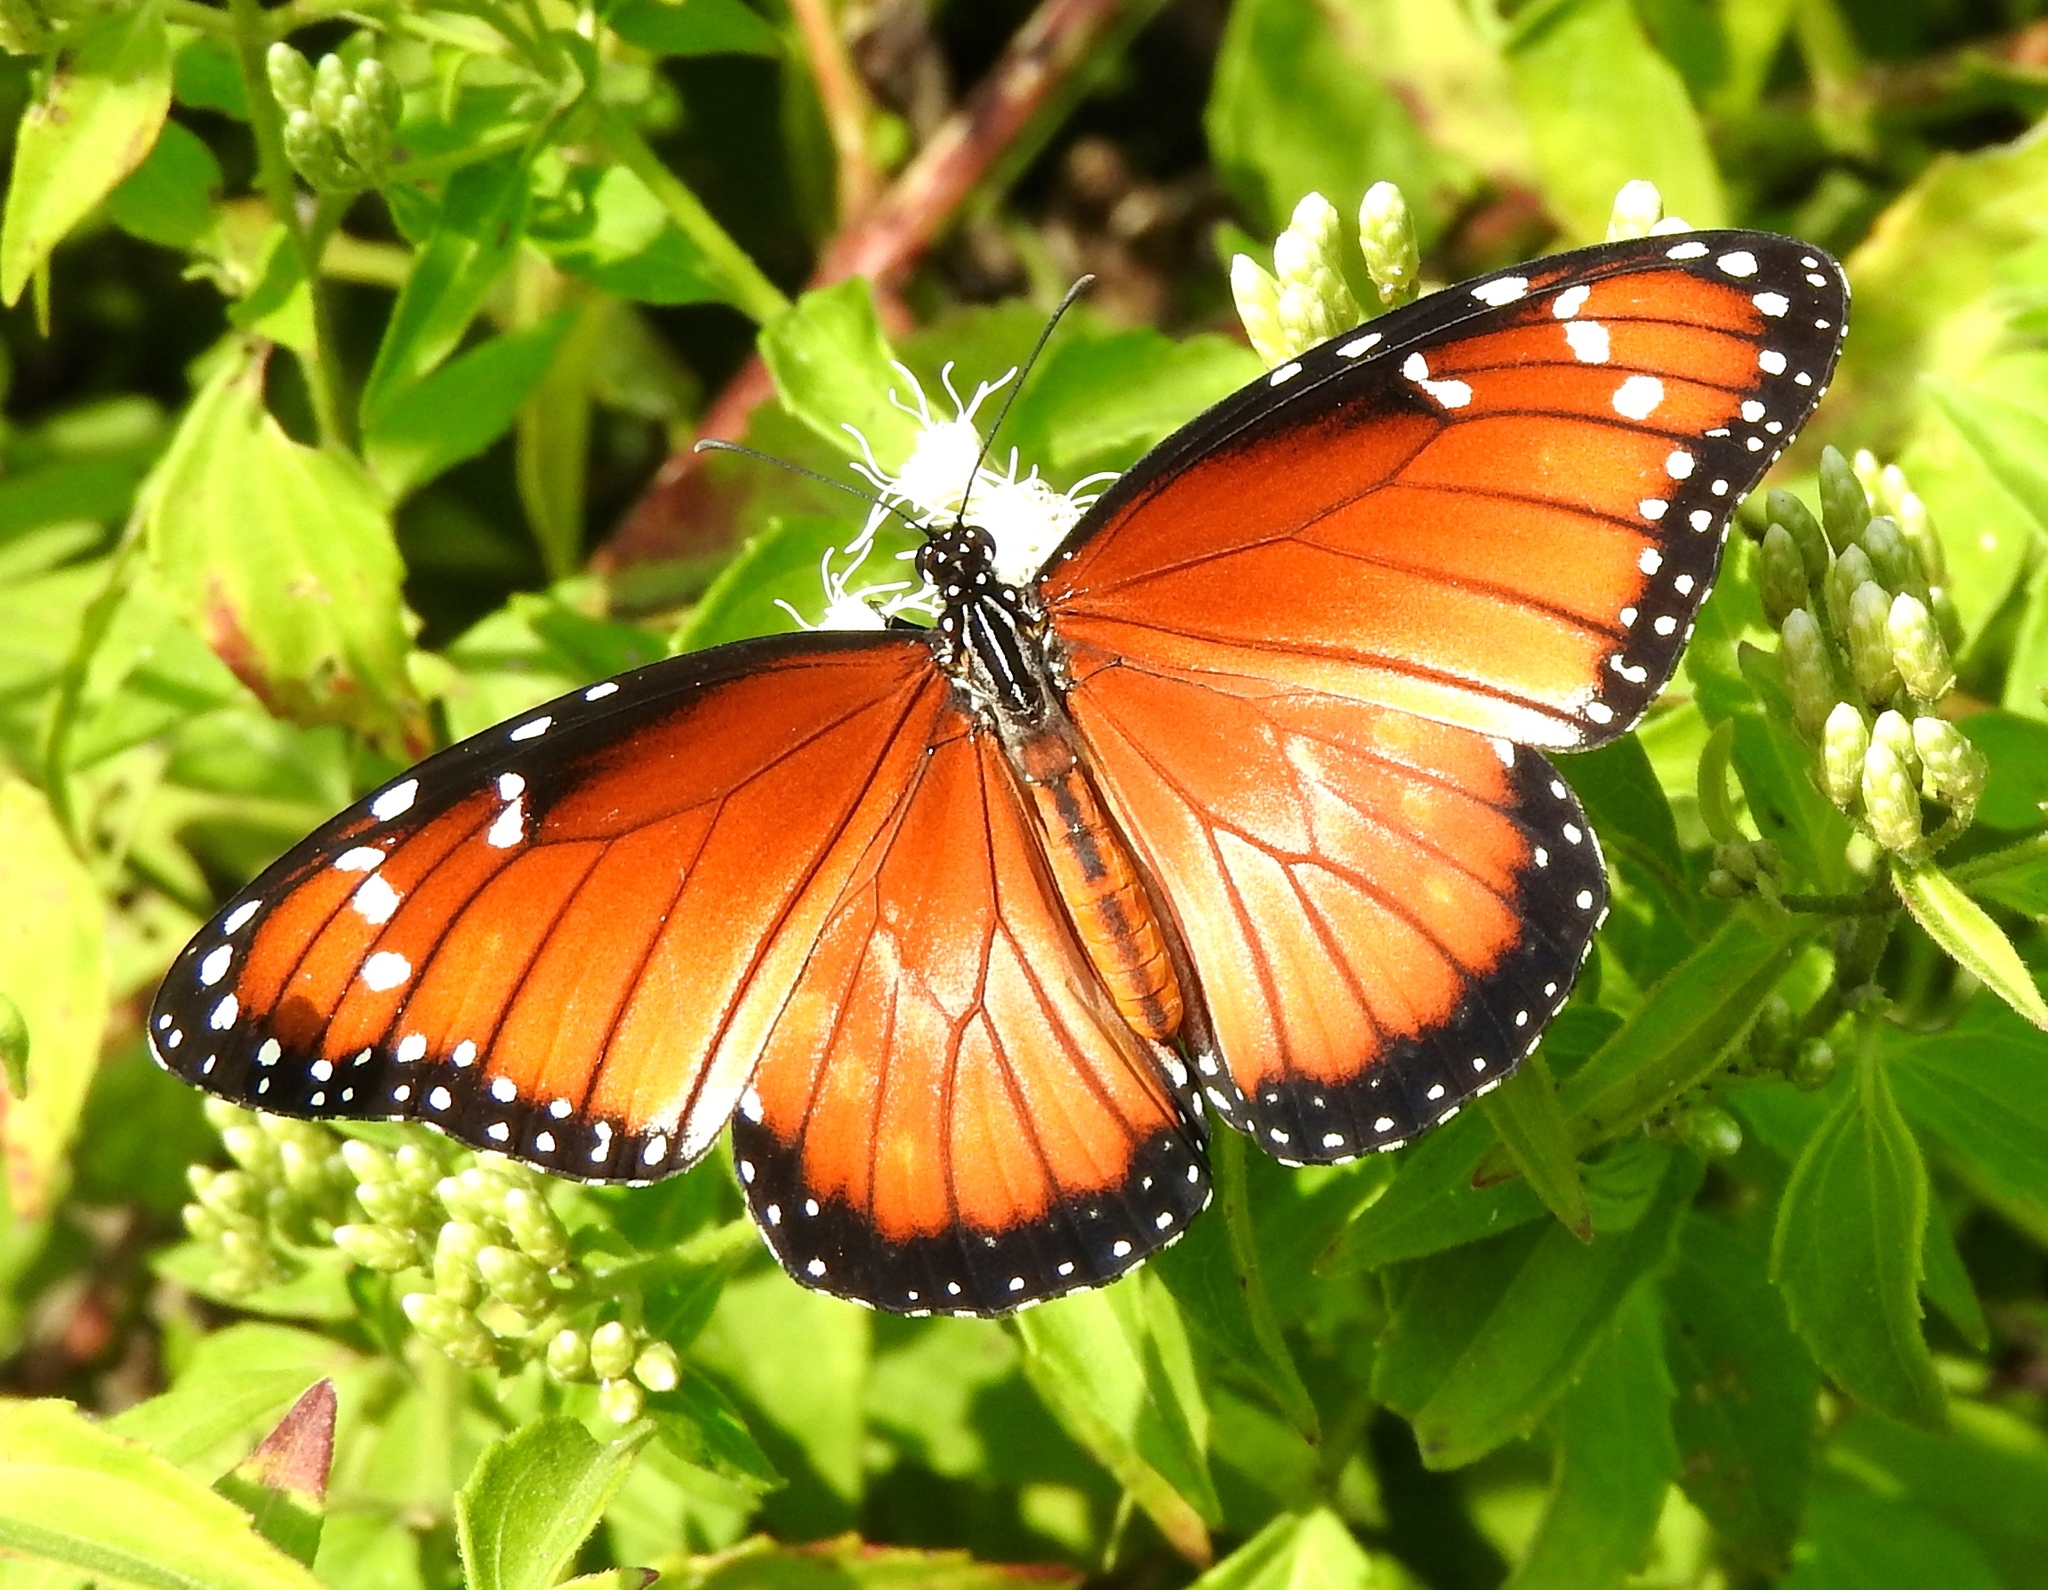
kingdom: Animalia
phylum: Arthropoda
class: Insecta
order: Lepidoptera
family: Nymphalidae
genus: Danaus
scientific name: Danaus eresimus
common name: Soldier
